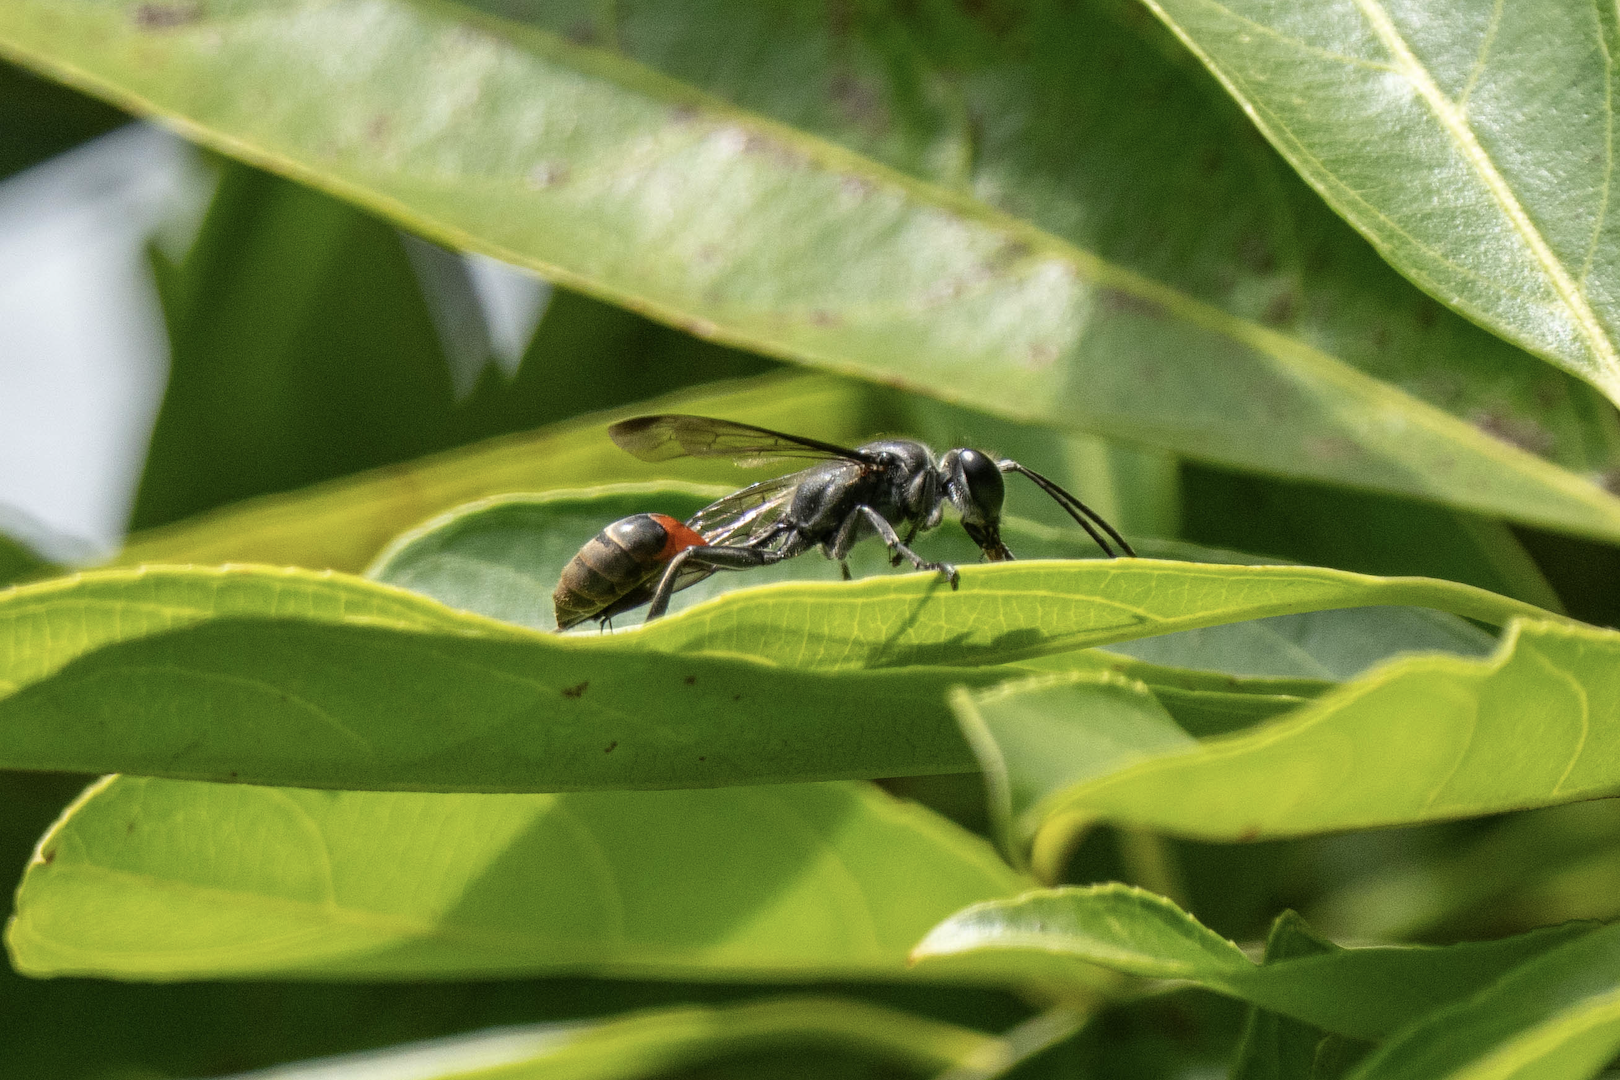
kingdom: Animalia
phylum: Arthropoda
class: Insecta
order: Hymenoptera
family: Sphecidae
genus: Isodontia
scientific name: Isodontia diodon
